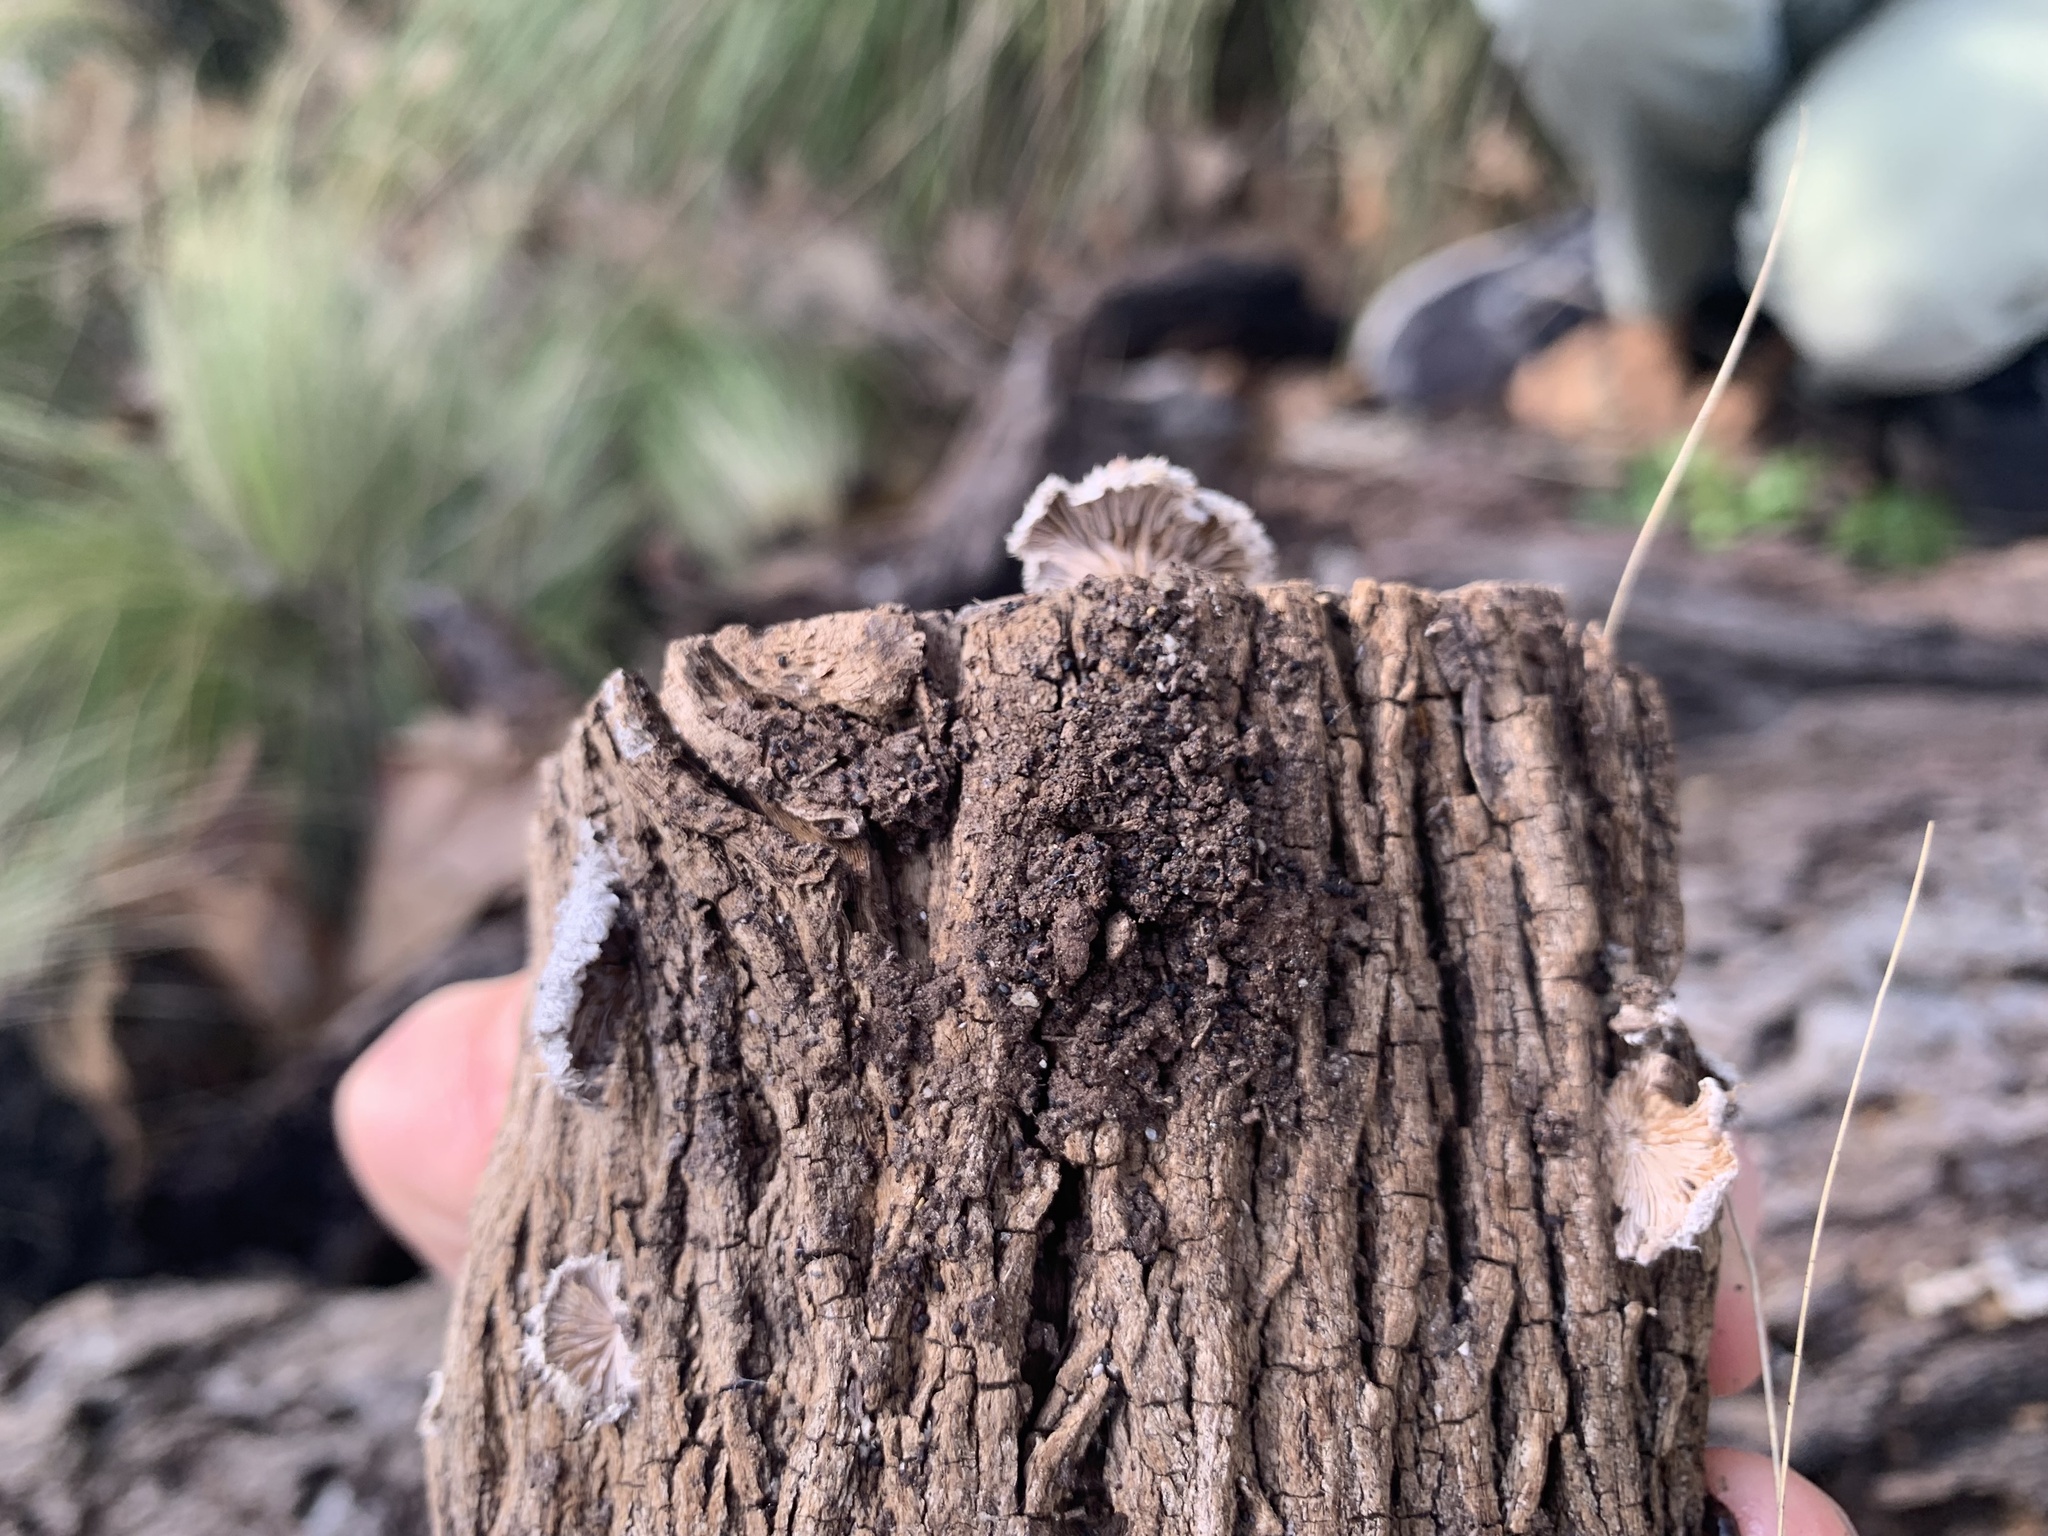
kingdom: Fungi
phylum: Basidiomycota
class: Agaricomycetes
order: Agaricales
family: Schizophyllaceae
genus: Schizophyllum
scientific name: Schizophyllum commune
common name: Common porecrust
